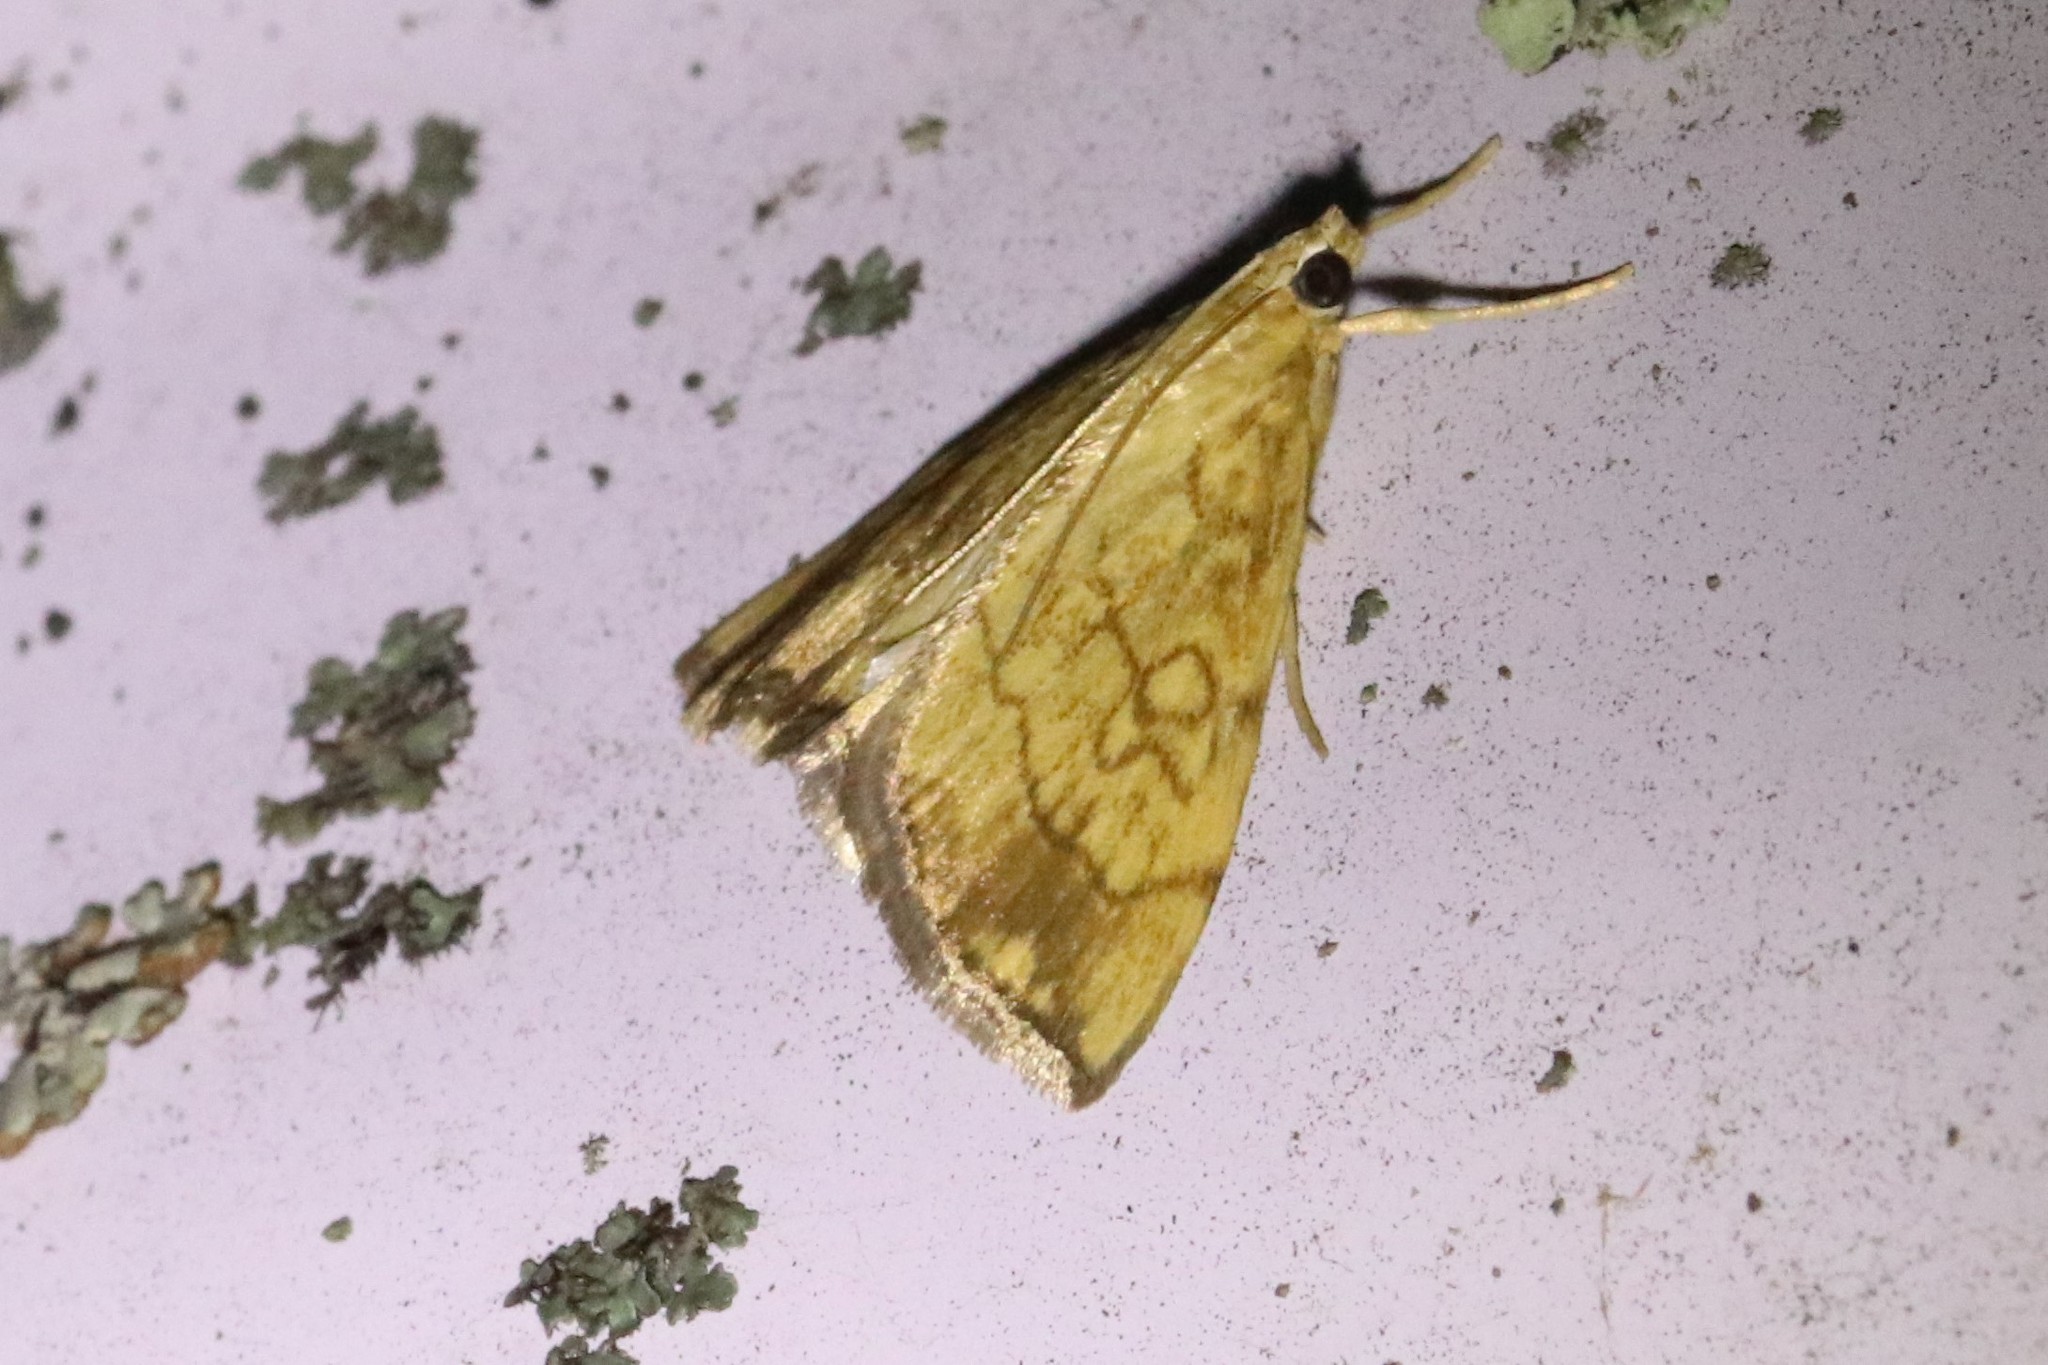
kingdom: Animalia
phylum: Arthropoda
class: Insecta
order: Lepidoptera
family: Crambidae
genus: Evergestis
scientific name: Evergestis pallidata
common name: Chequered pearl
